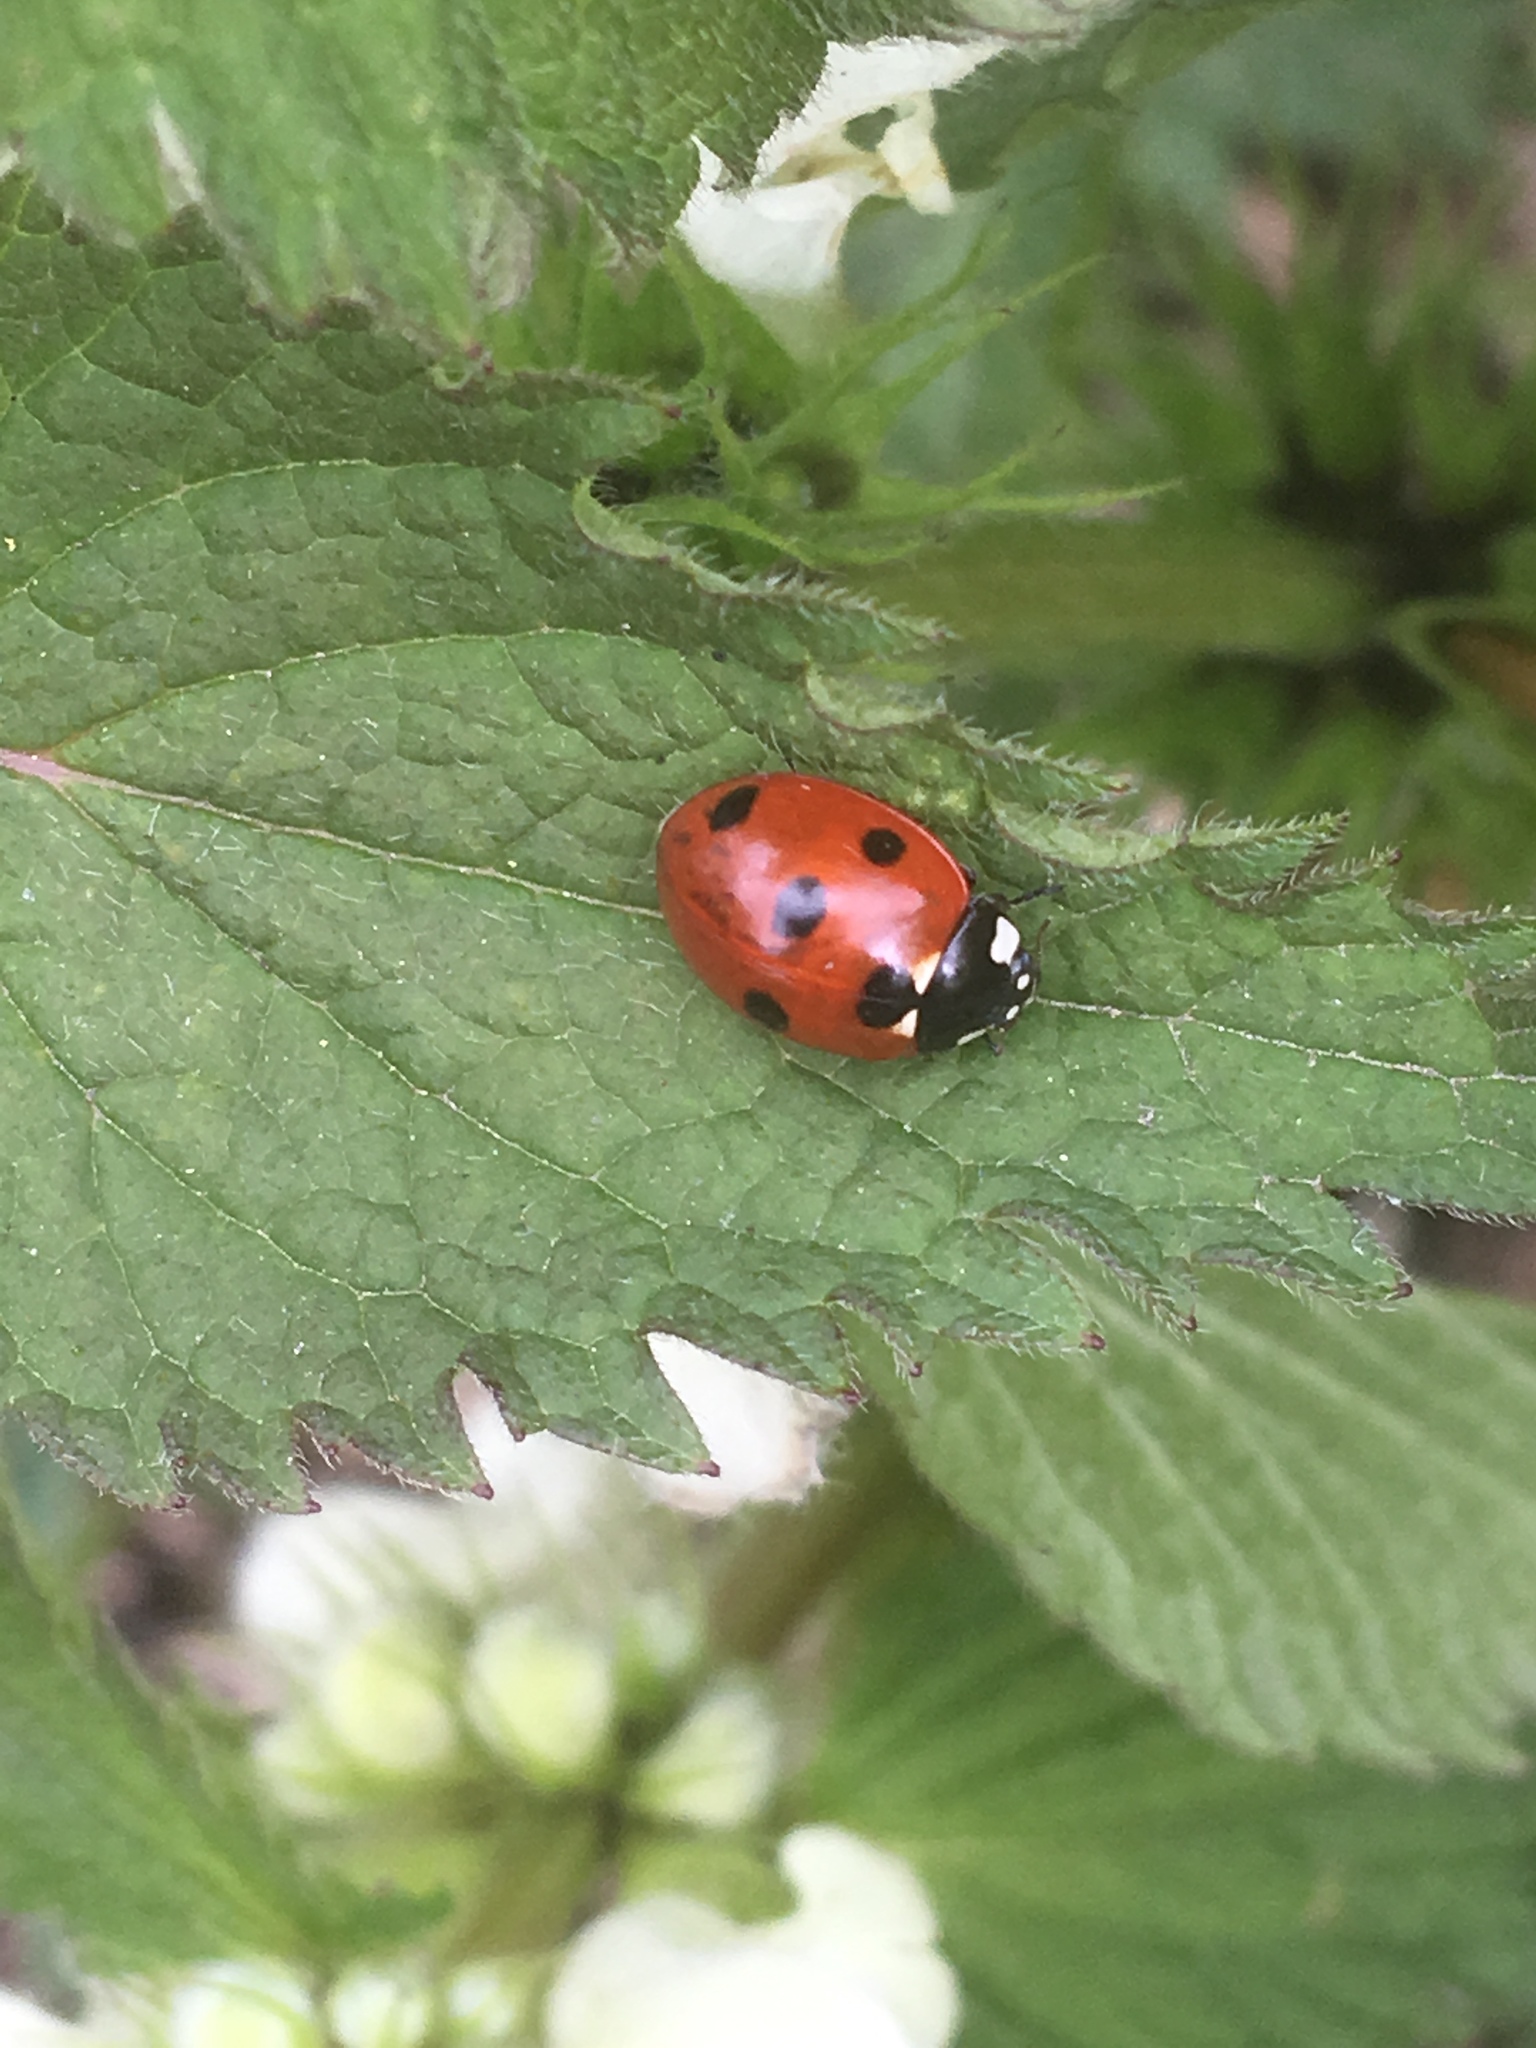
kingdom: Animalia
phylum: Arthropoda
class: Insecta
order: Coleoptera
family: Coccinellidae
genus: Coccinella
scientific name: Coccinella septempunctata
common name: Sevenspotted lady beetle
